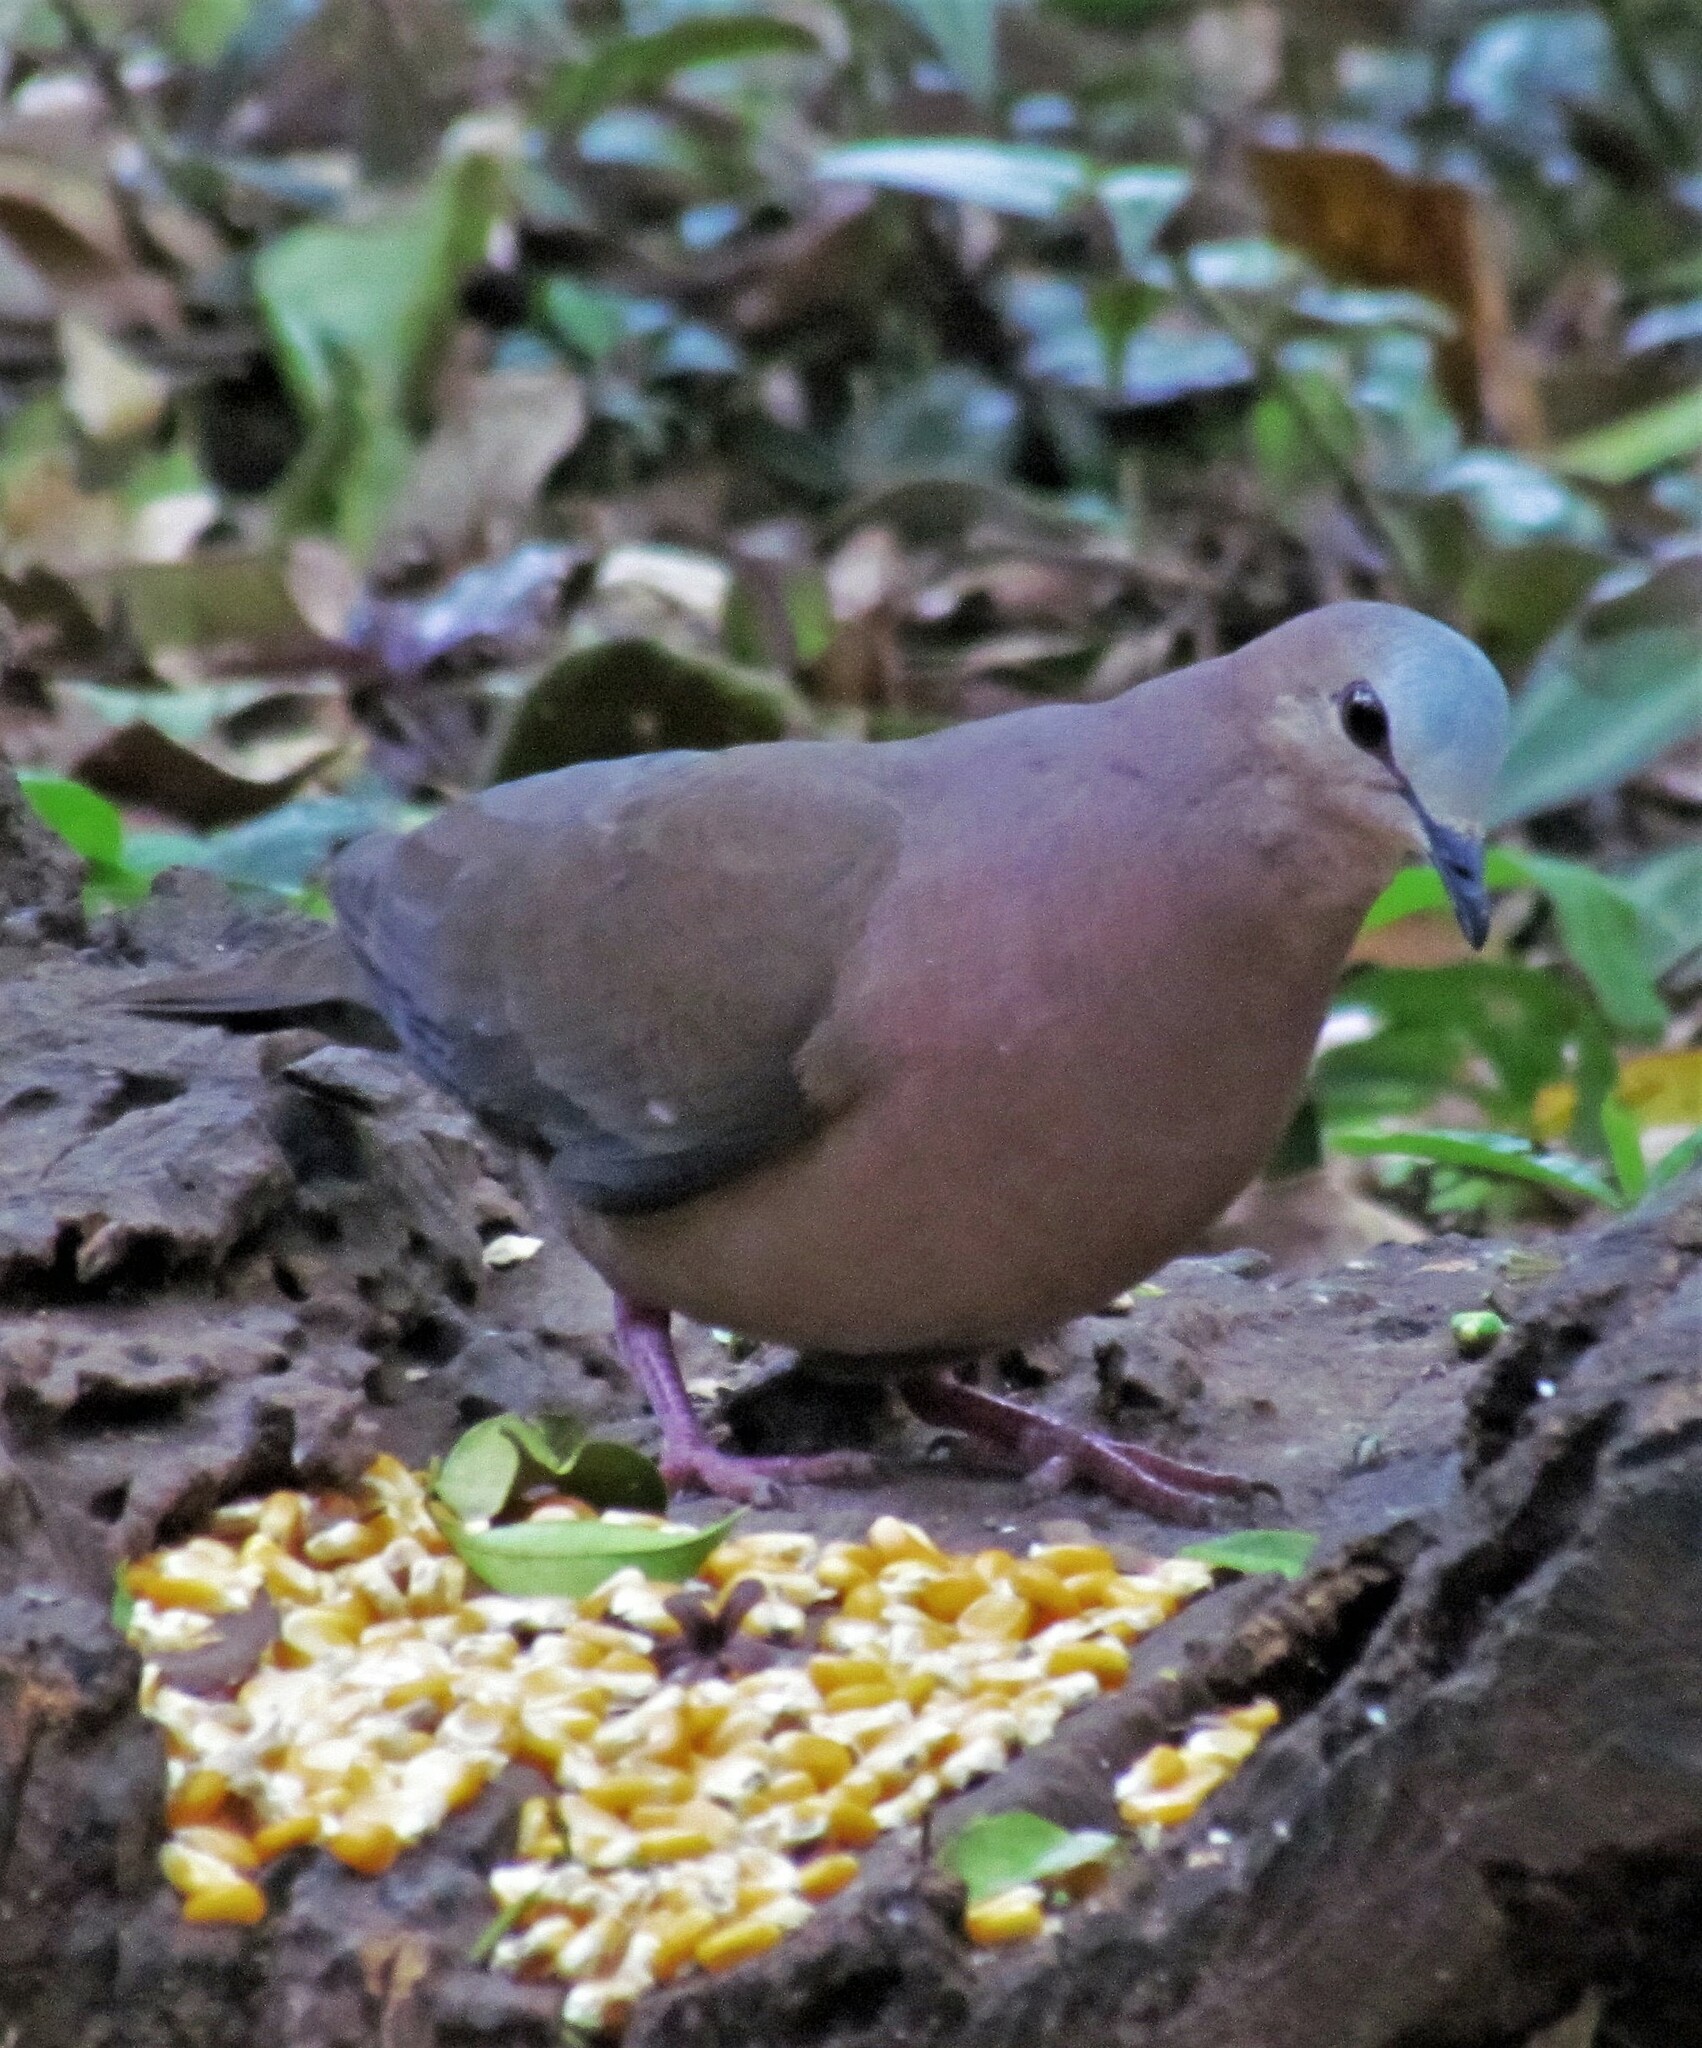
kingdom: Animalia
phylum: Chordata
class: Aves
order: Columbiformes
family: Columbidae
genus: Leptotila
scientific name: Leptotila rufaxilla
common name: Grey-fronted dove
